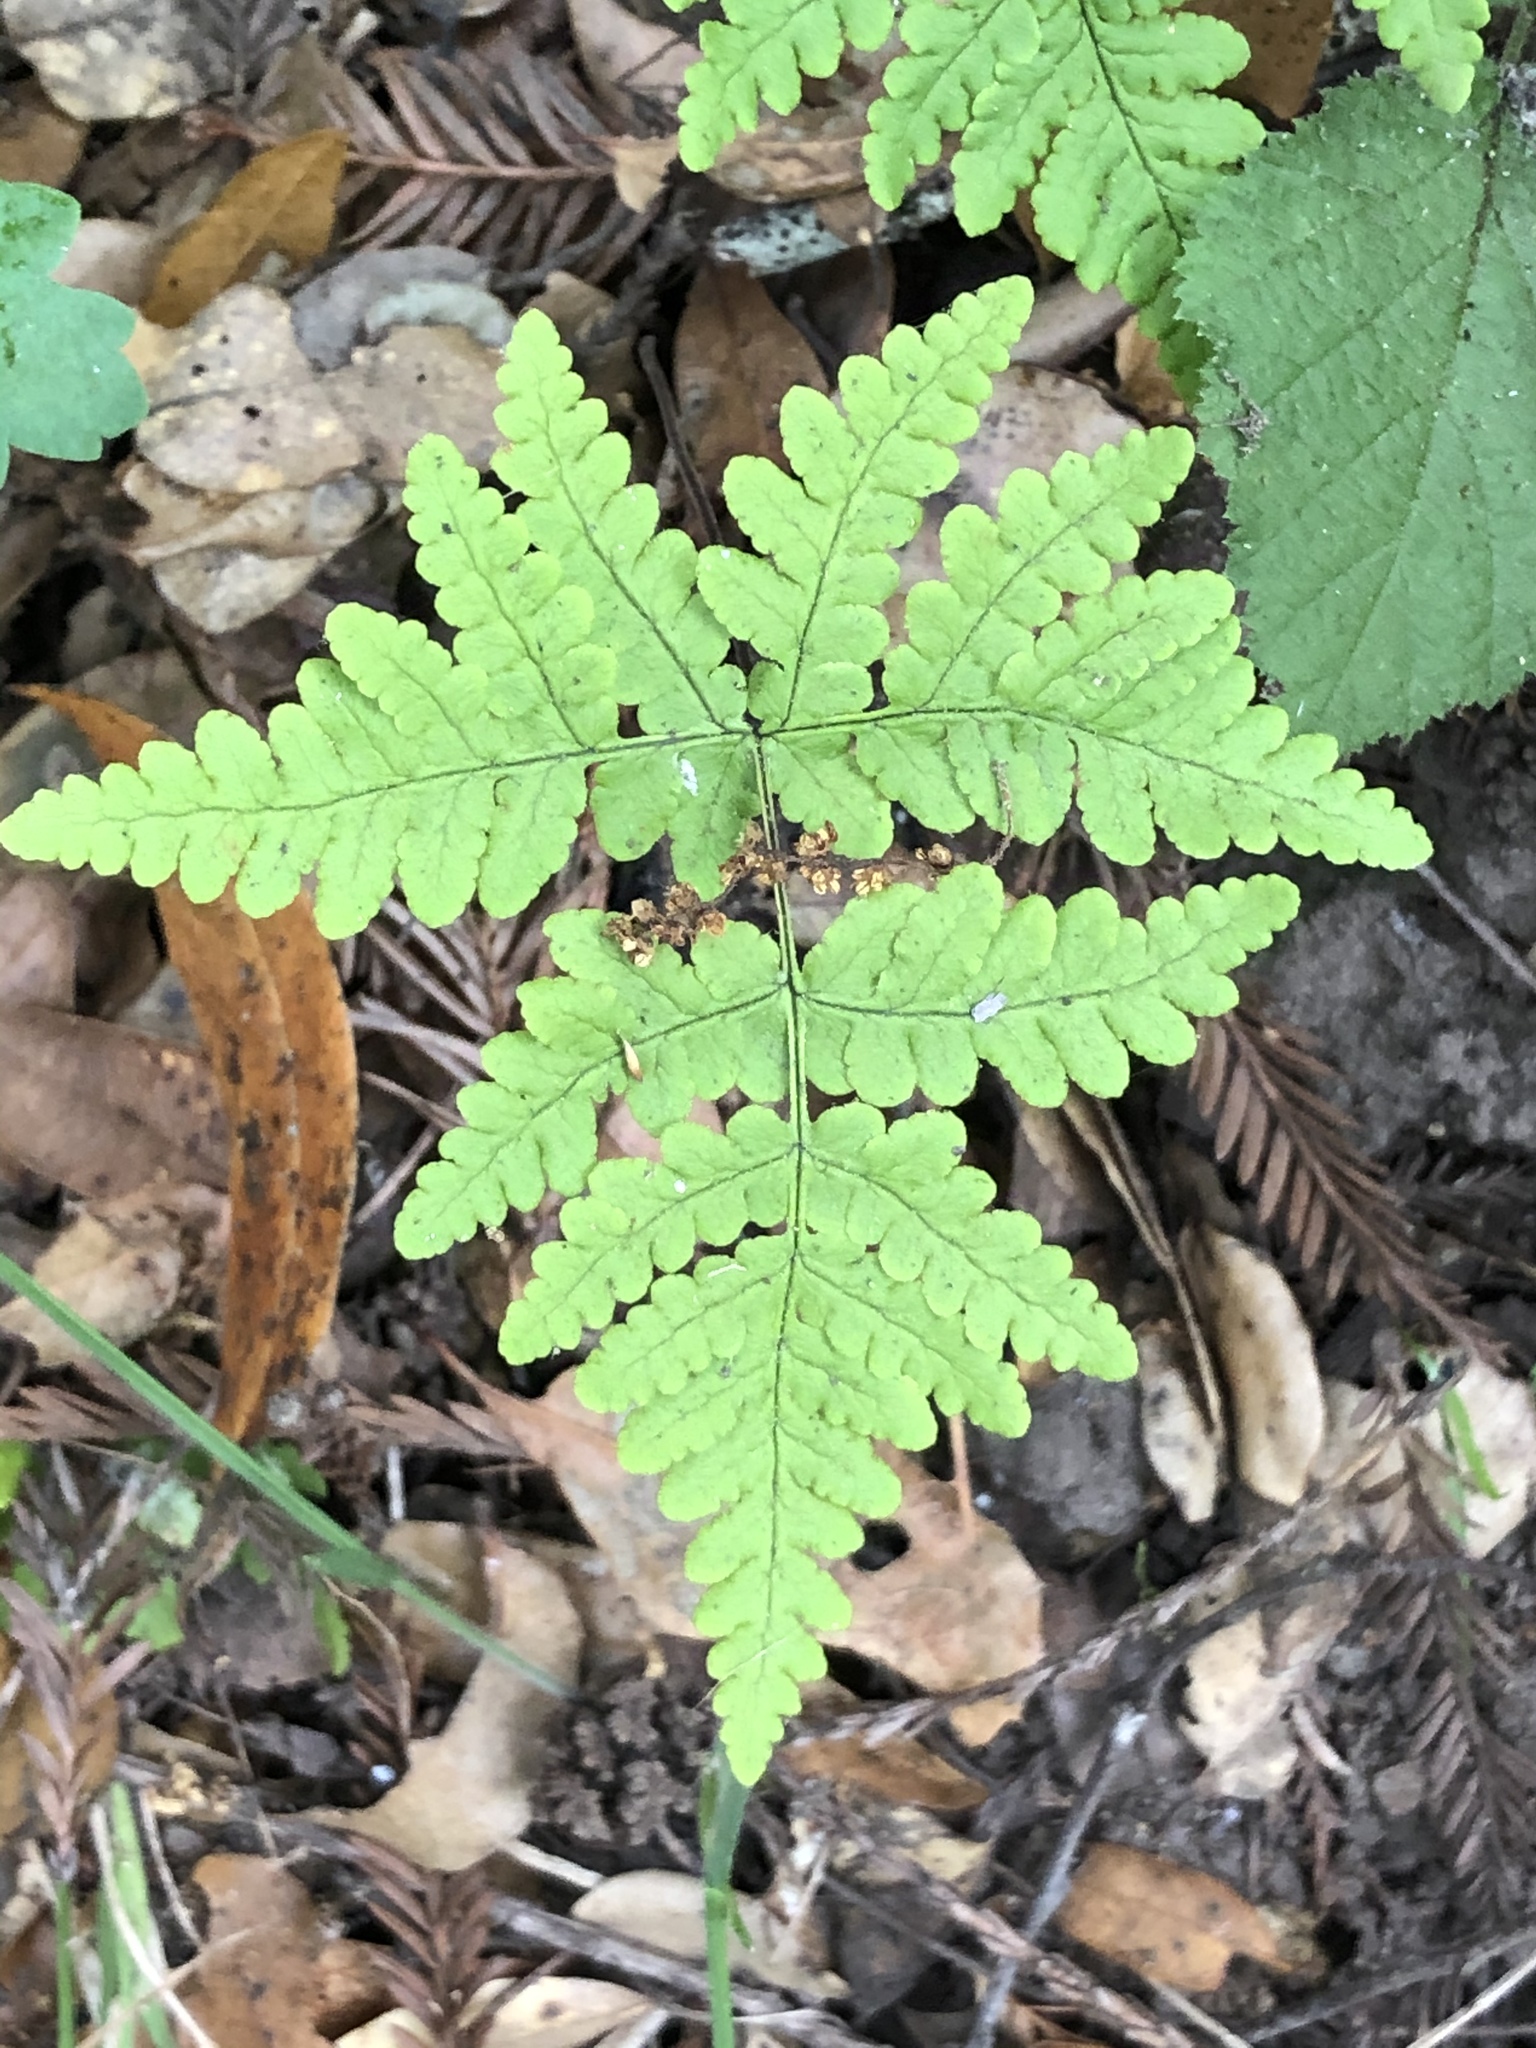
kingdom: Plantae
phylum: Tracheophyta
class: Polypodiopsida
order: Polypodiales
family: Pteridaceae
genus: Pentagramma
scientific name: Pentagramma triangularis
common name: Gold fern
